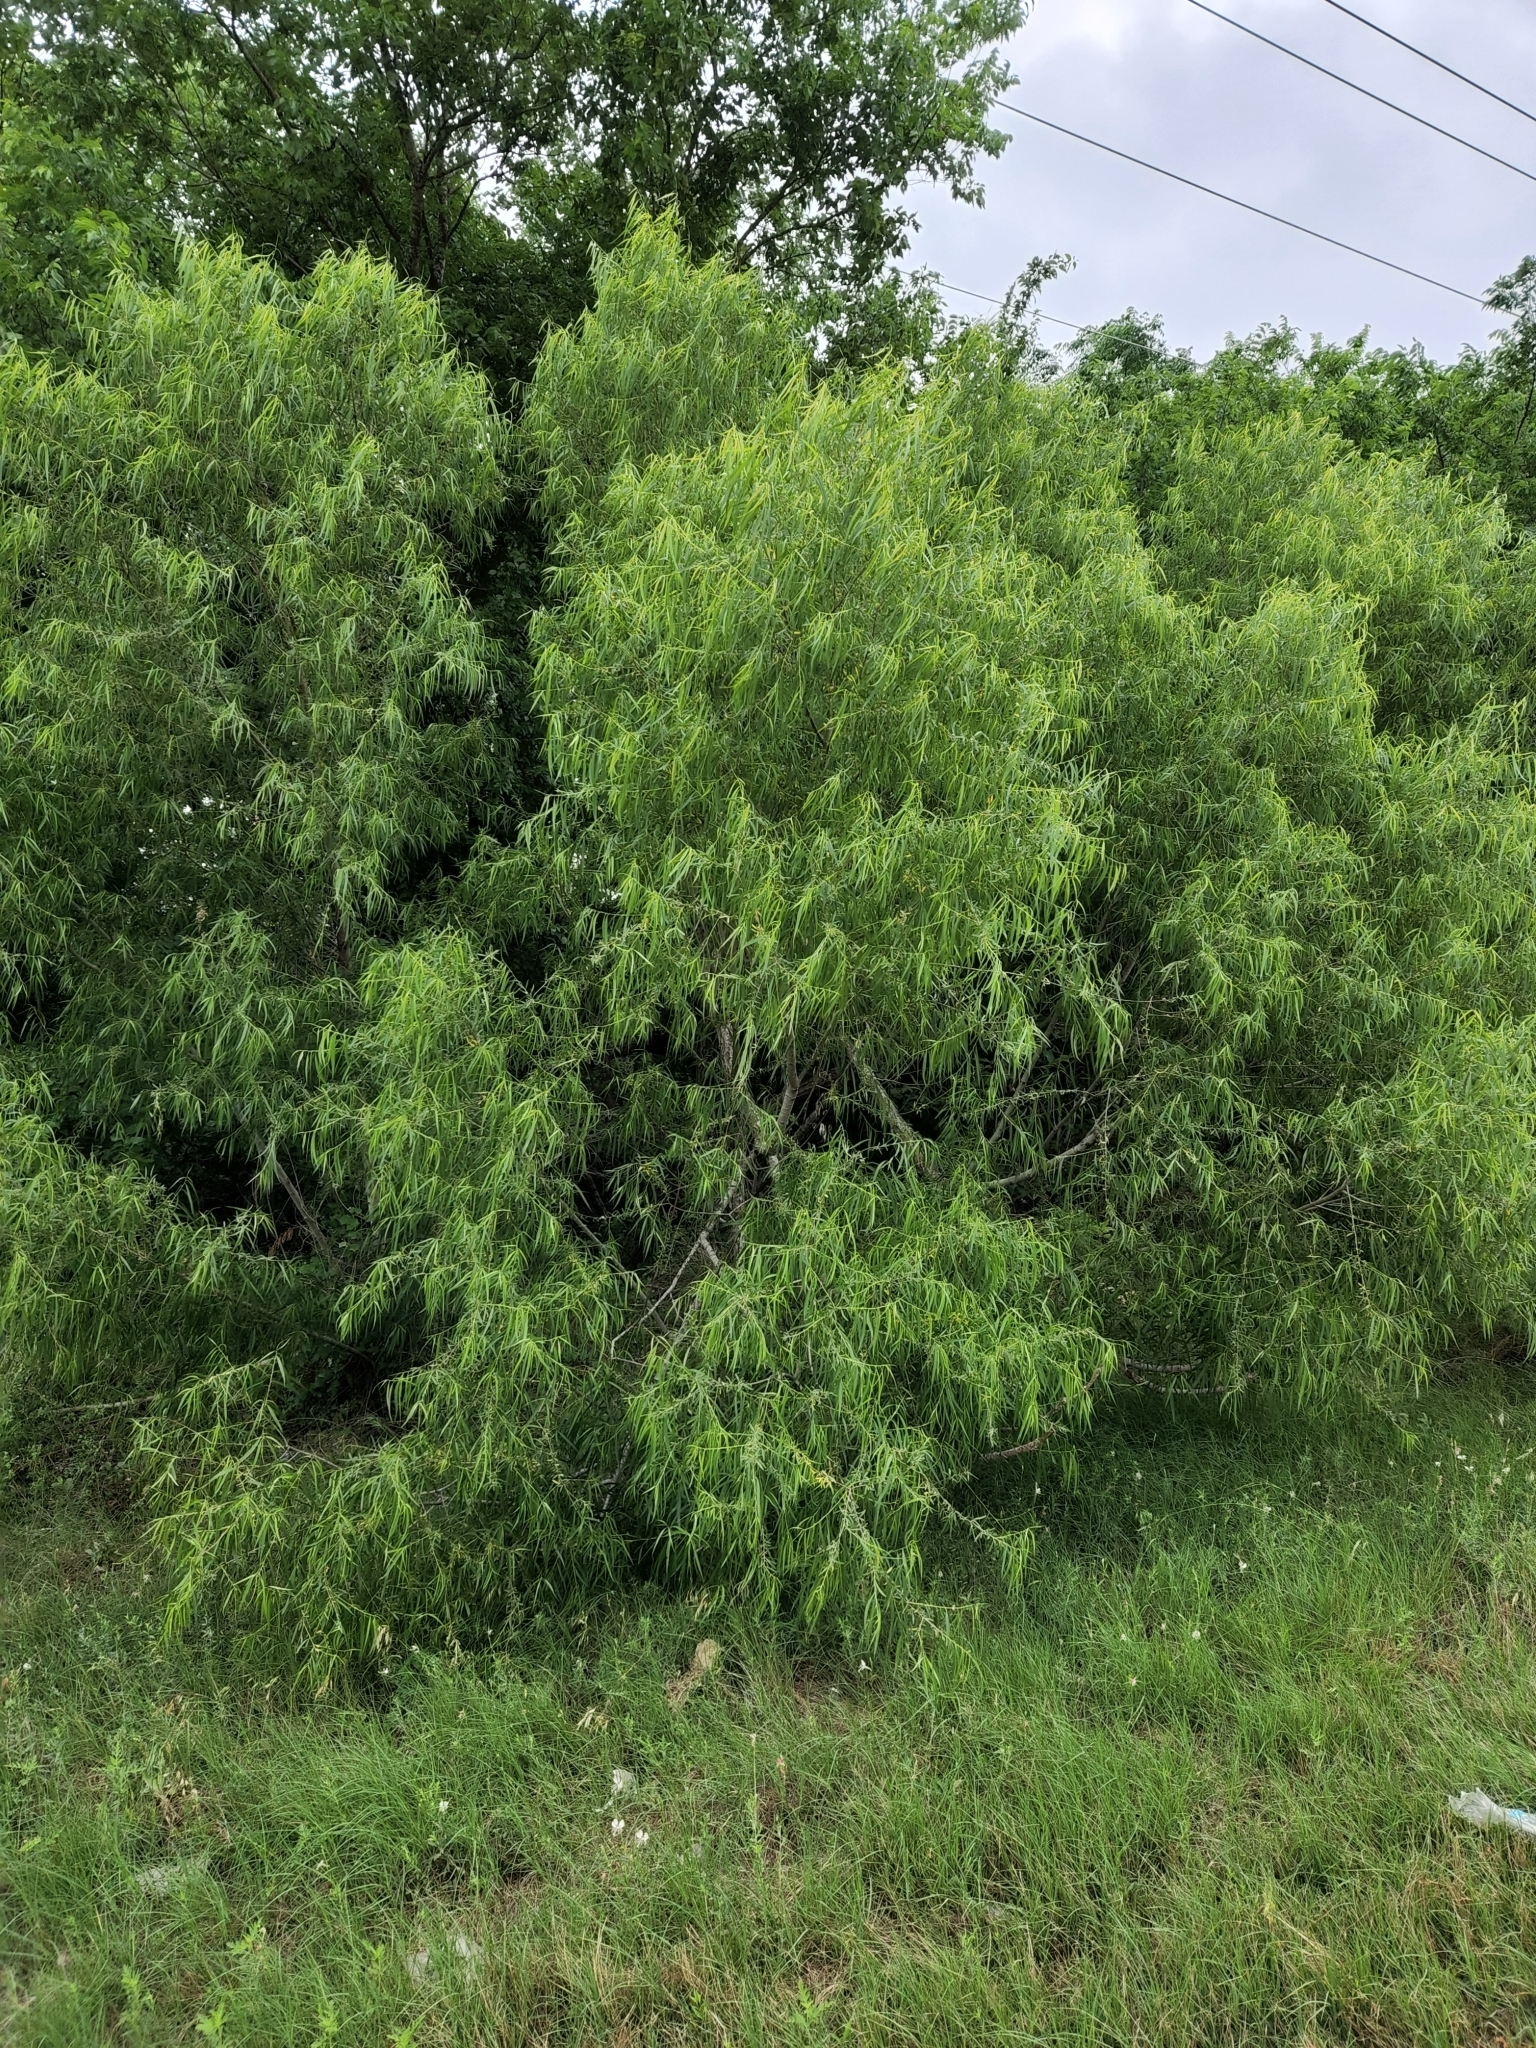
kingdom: Plantae
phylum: Tracheophyta
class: Magnoliopsida
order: Malpighiales
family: Salicaceae
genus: Salix
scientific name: Salix nigra
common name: Black willow
